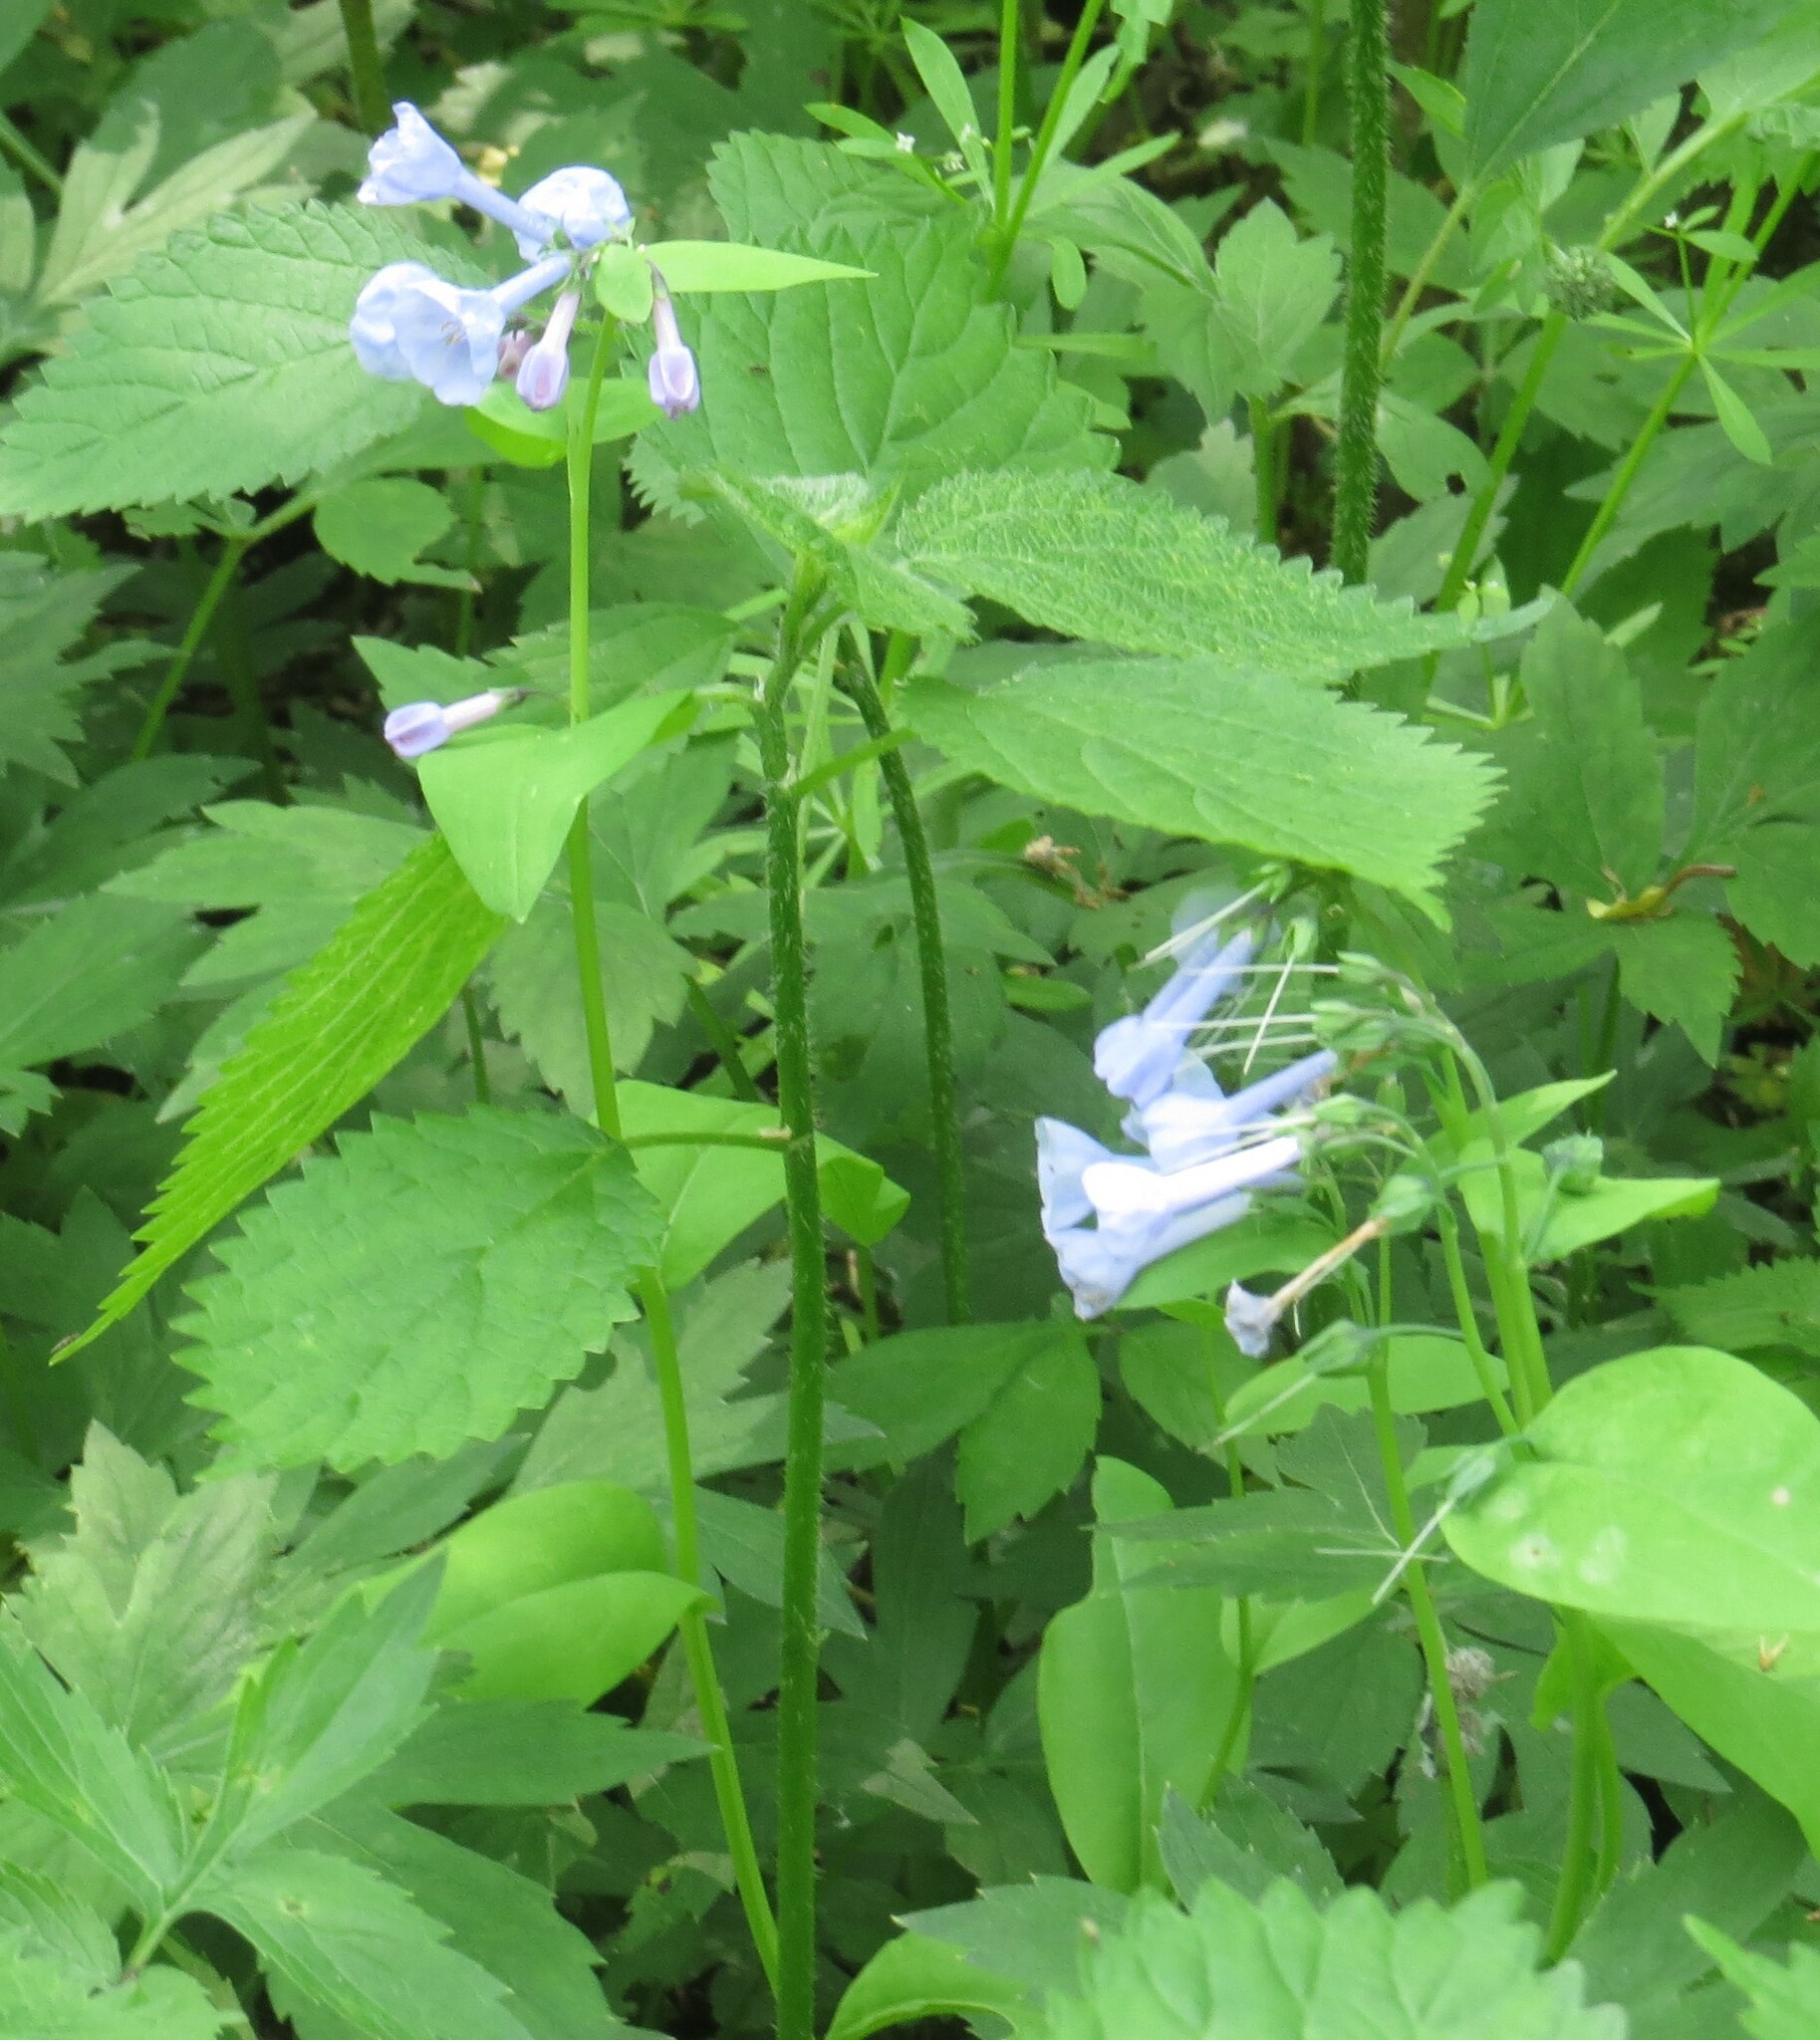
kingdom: Plantae
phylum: Tracheophyta
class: Magnoliopsida
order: Boraginales
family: Boraginaceae
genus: Mertensia
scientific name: Mertensia virginica
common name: Virginia bluebells
